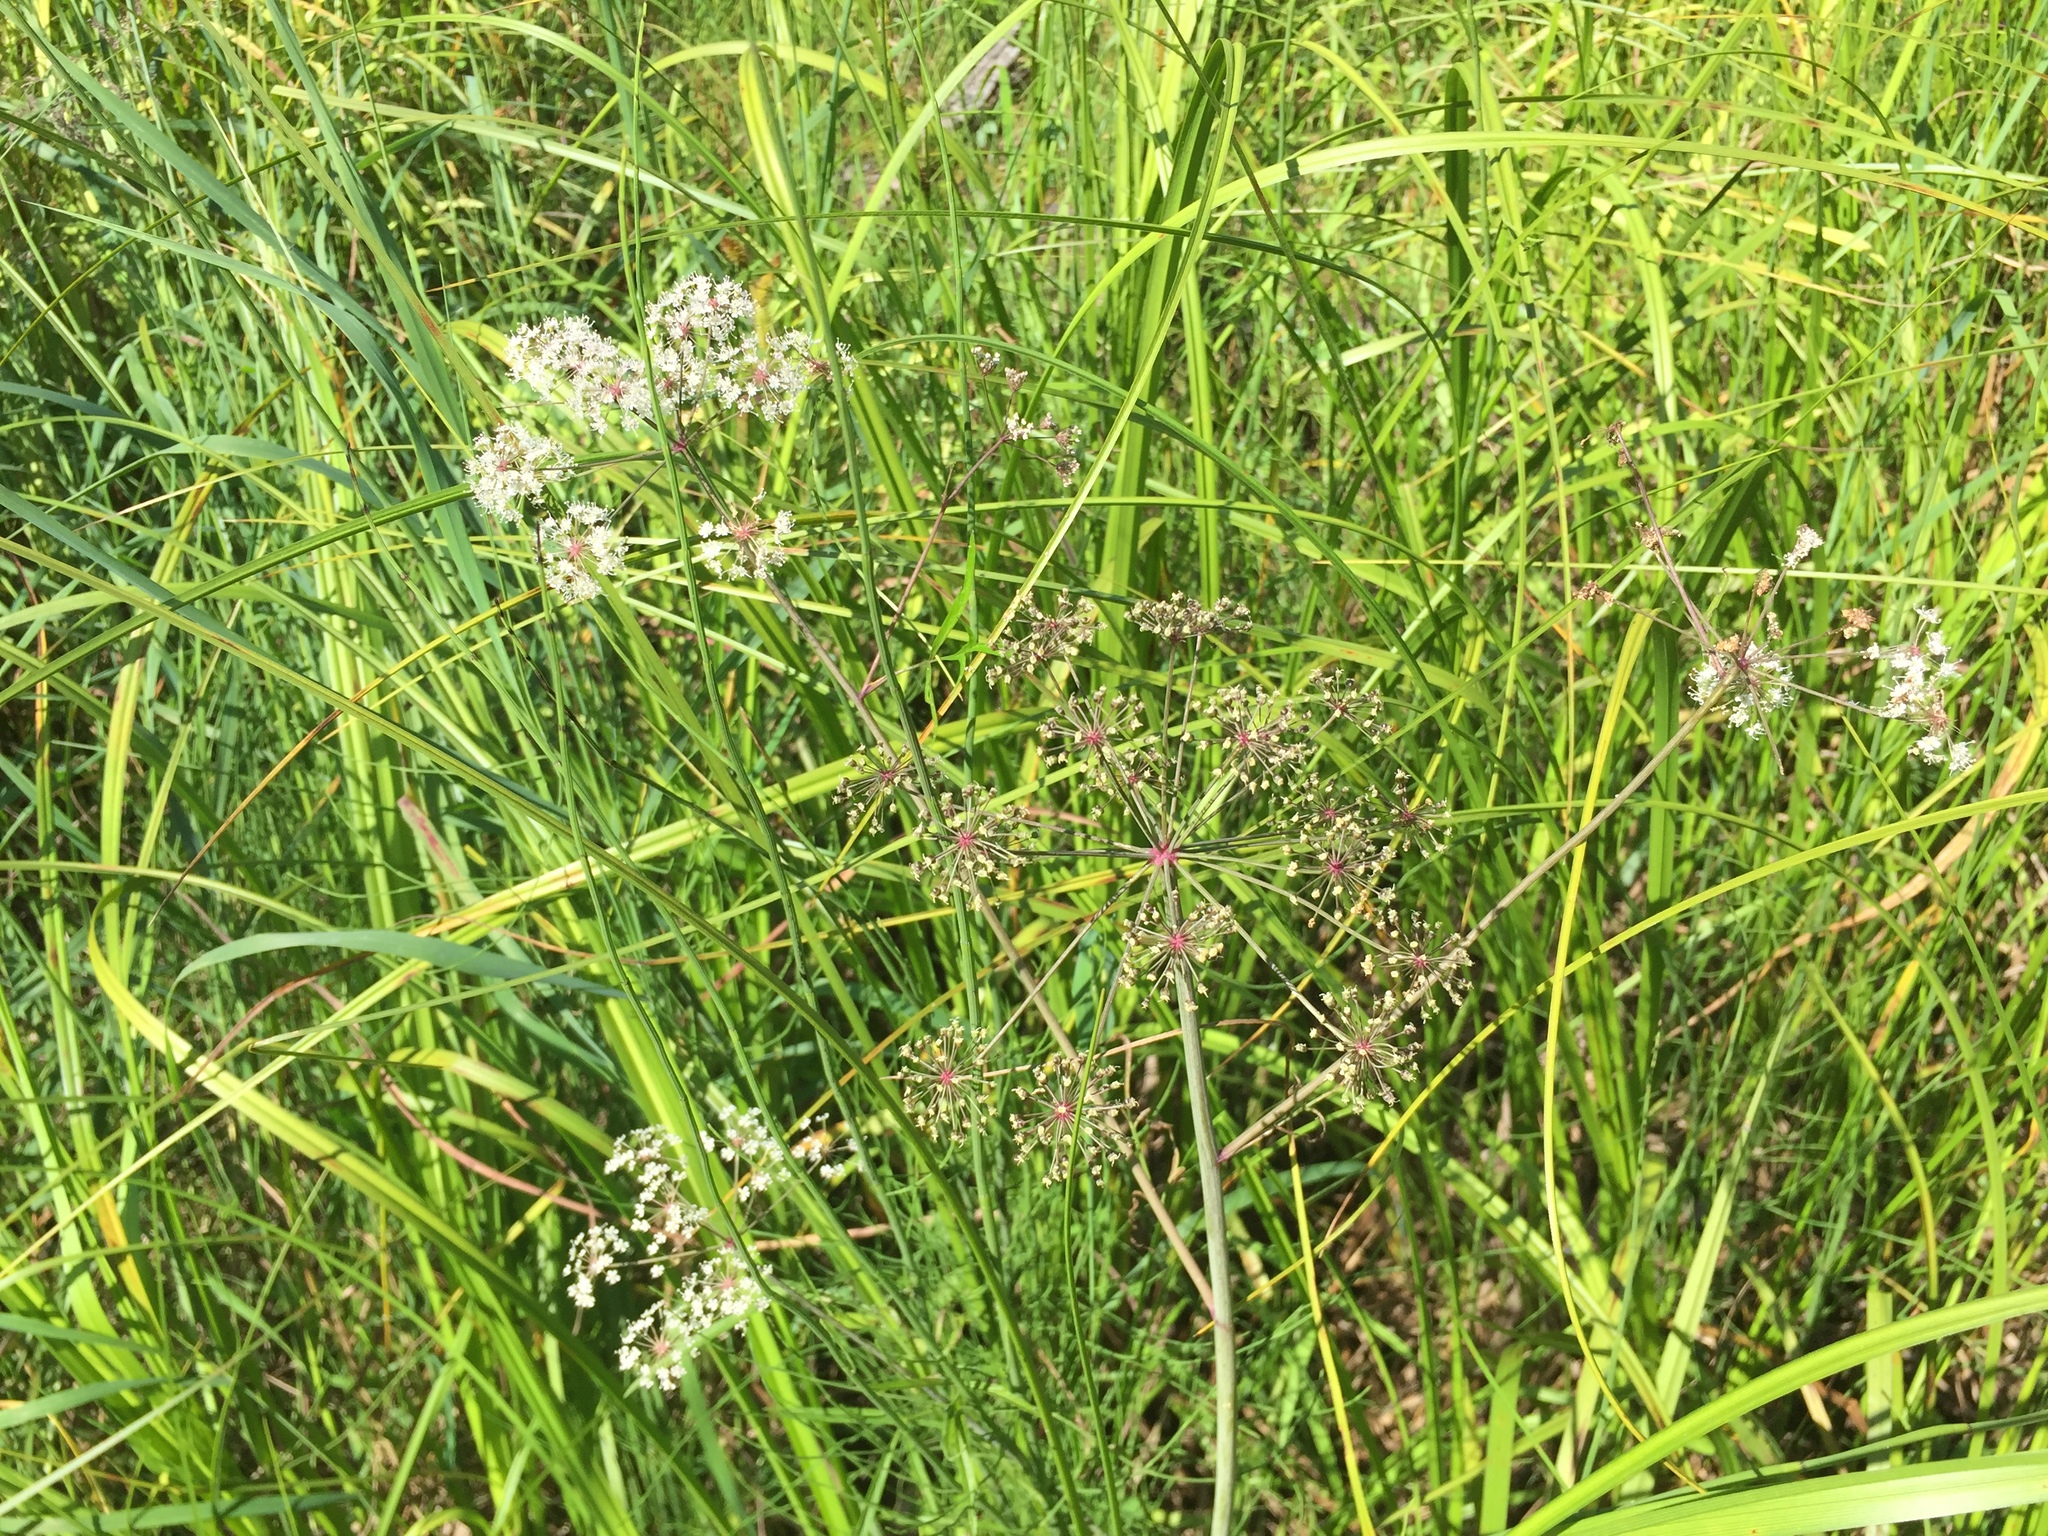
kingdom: Plantae
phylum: Tracheophyta
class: Magnoliopsida
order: Apiales
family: Apiaceae
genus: Cicuta
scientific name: Cicuta virosa
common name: Cowbane
